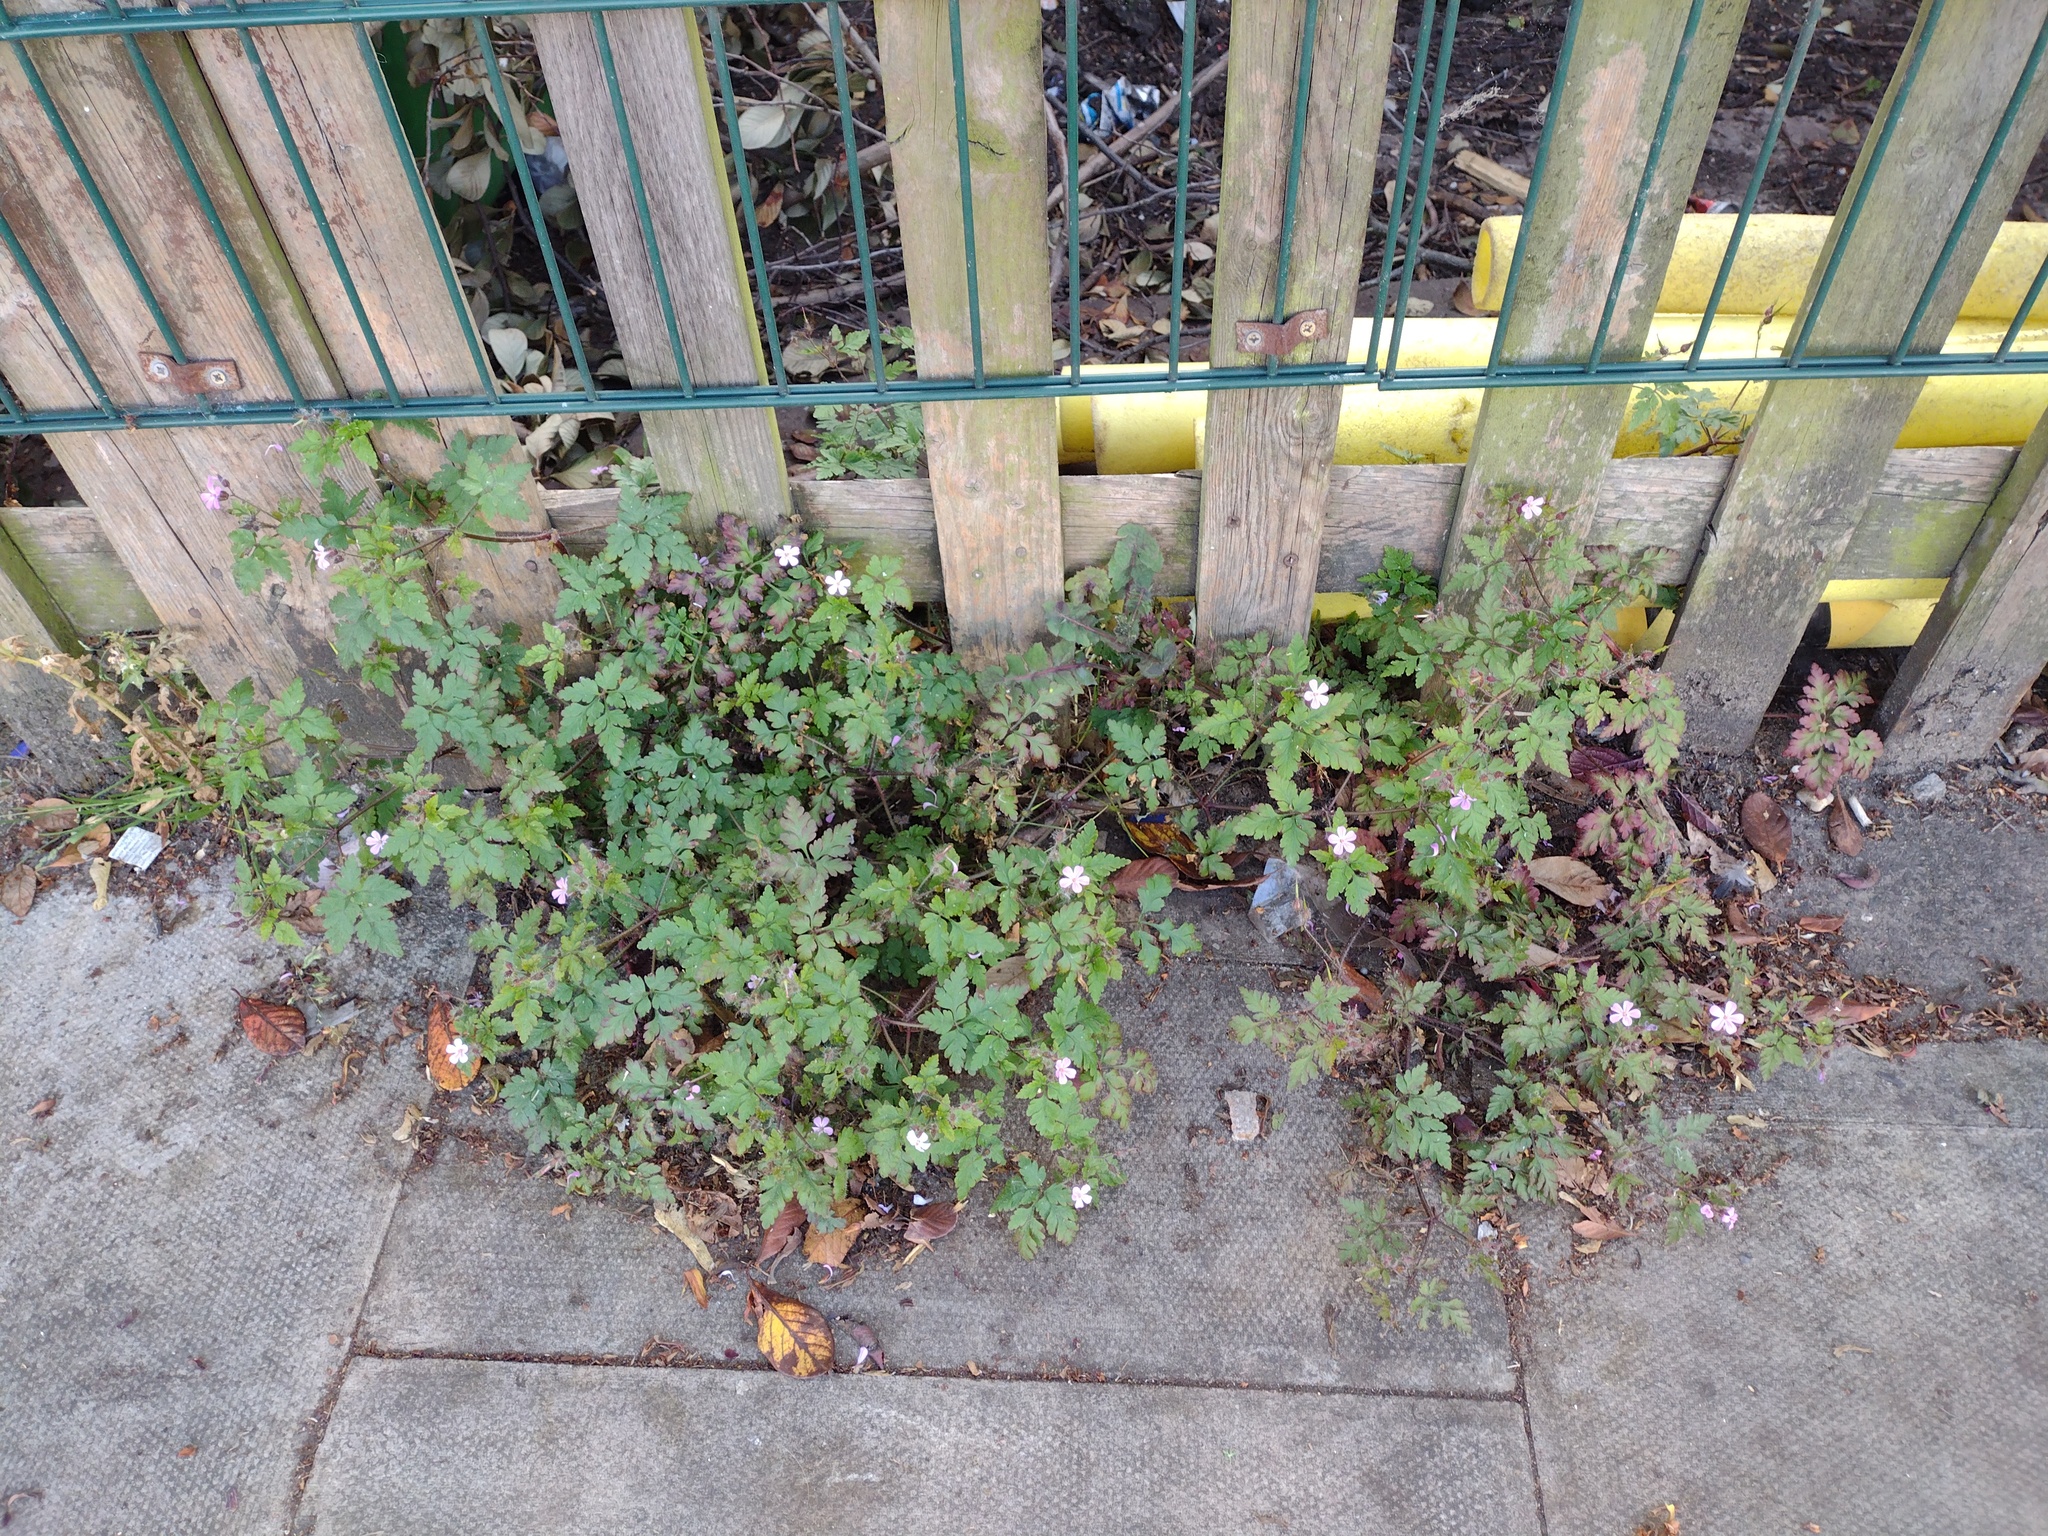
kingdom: Plantae
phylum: Tracheophyta
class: Magnoliopsida
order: Geraniales
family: Geraniaceae
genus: Geranium
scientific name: Geranium robertianum
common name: Herb-robert
